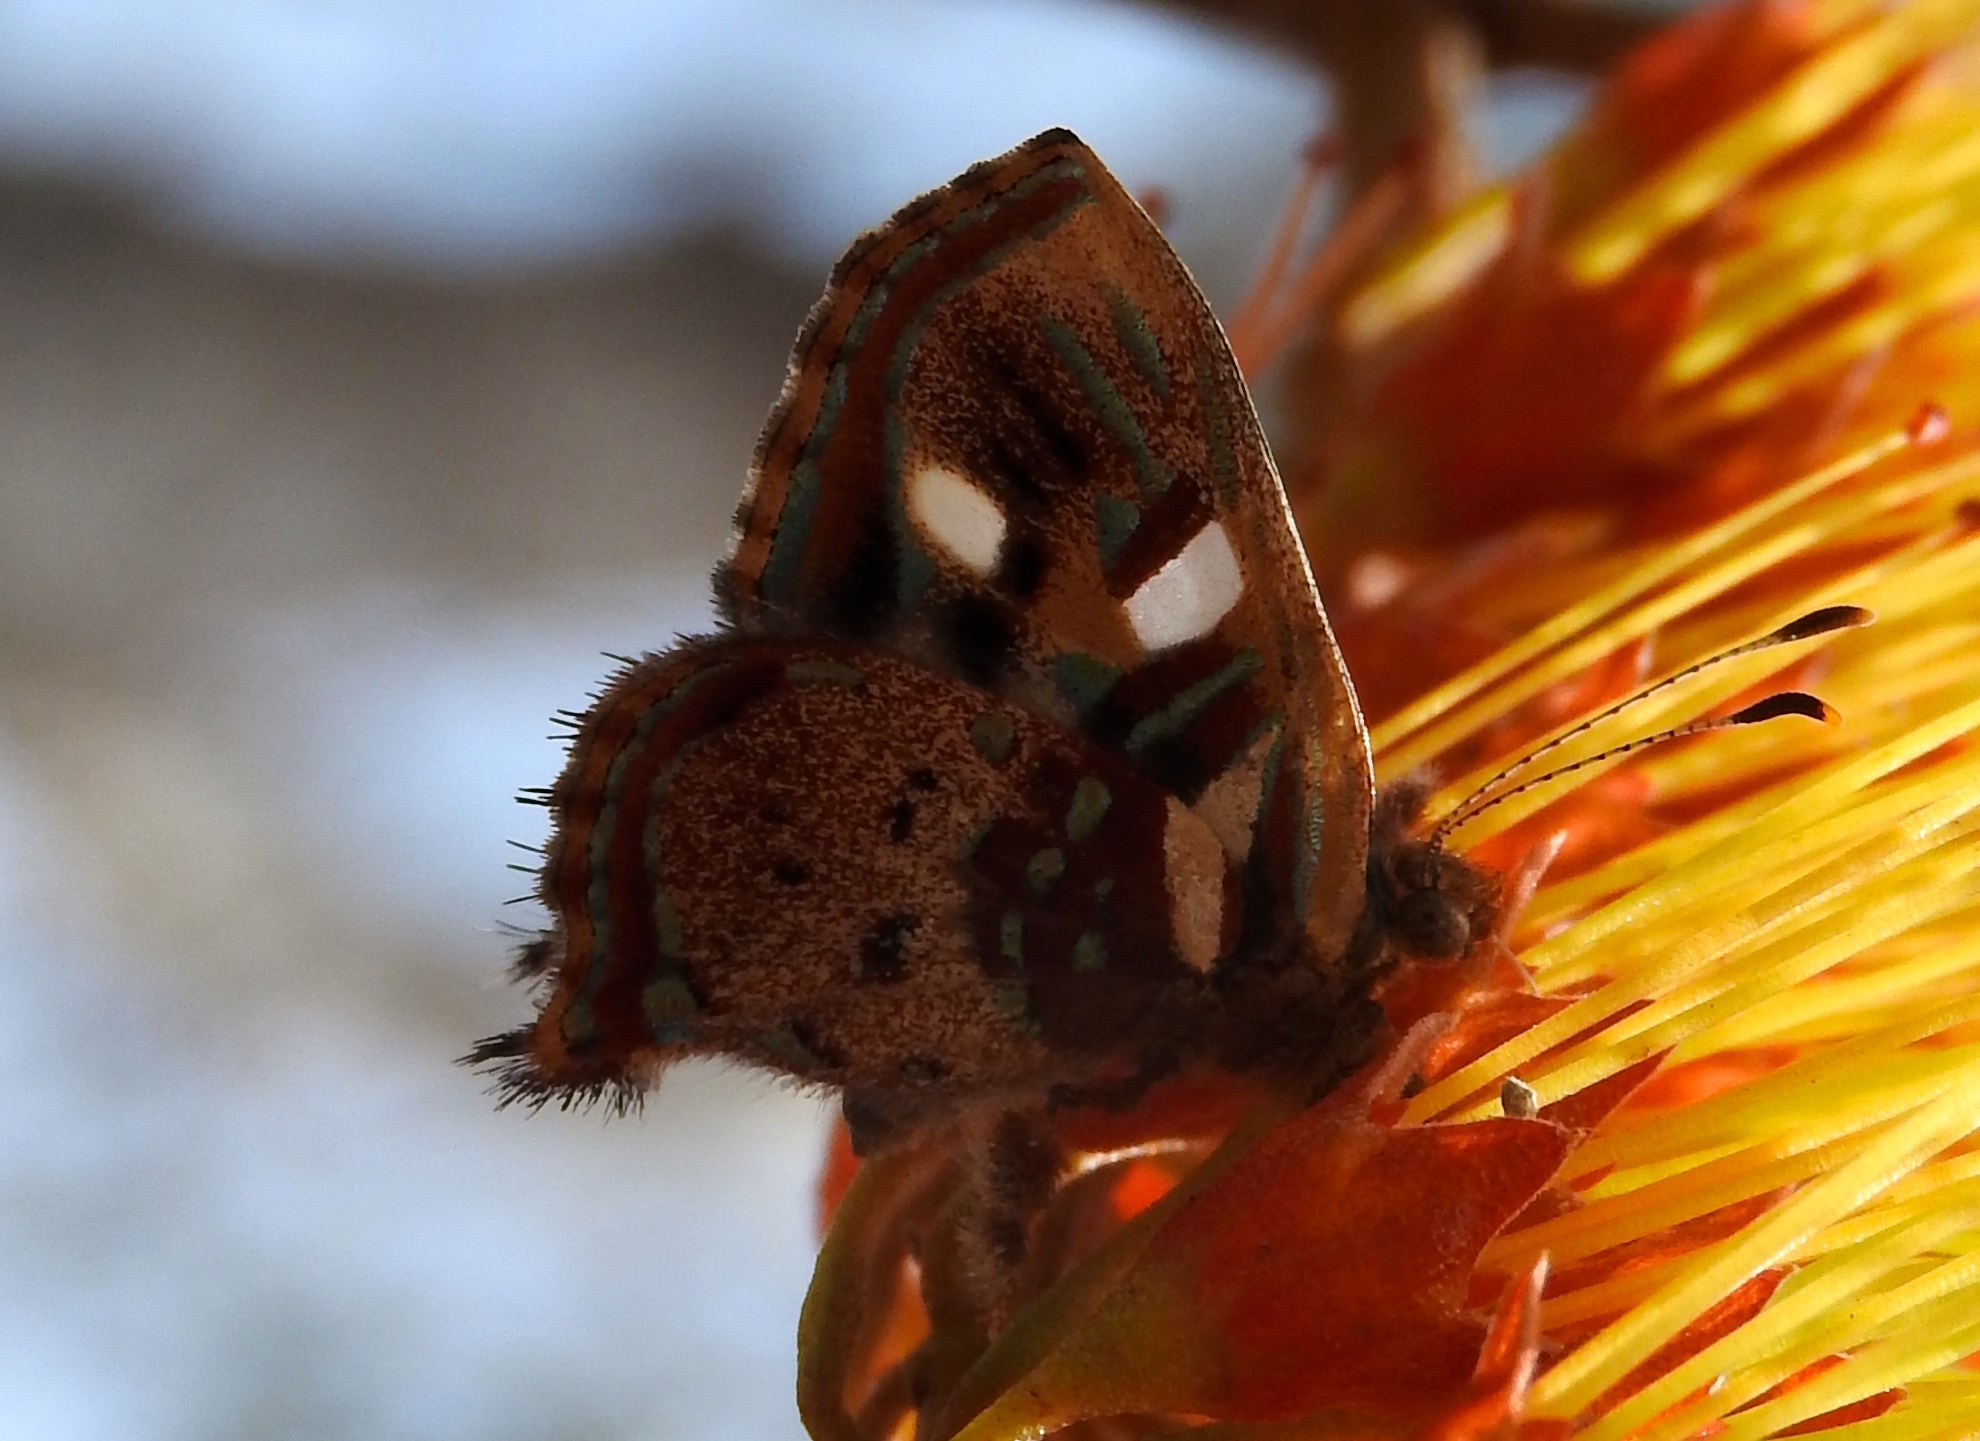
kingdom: Animalia
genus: Anteros
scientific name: Anteros carausius
